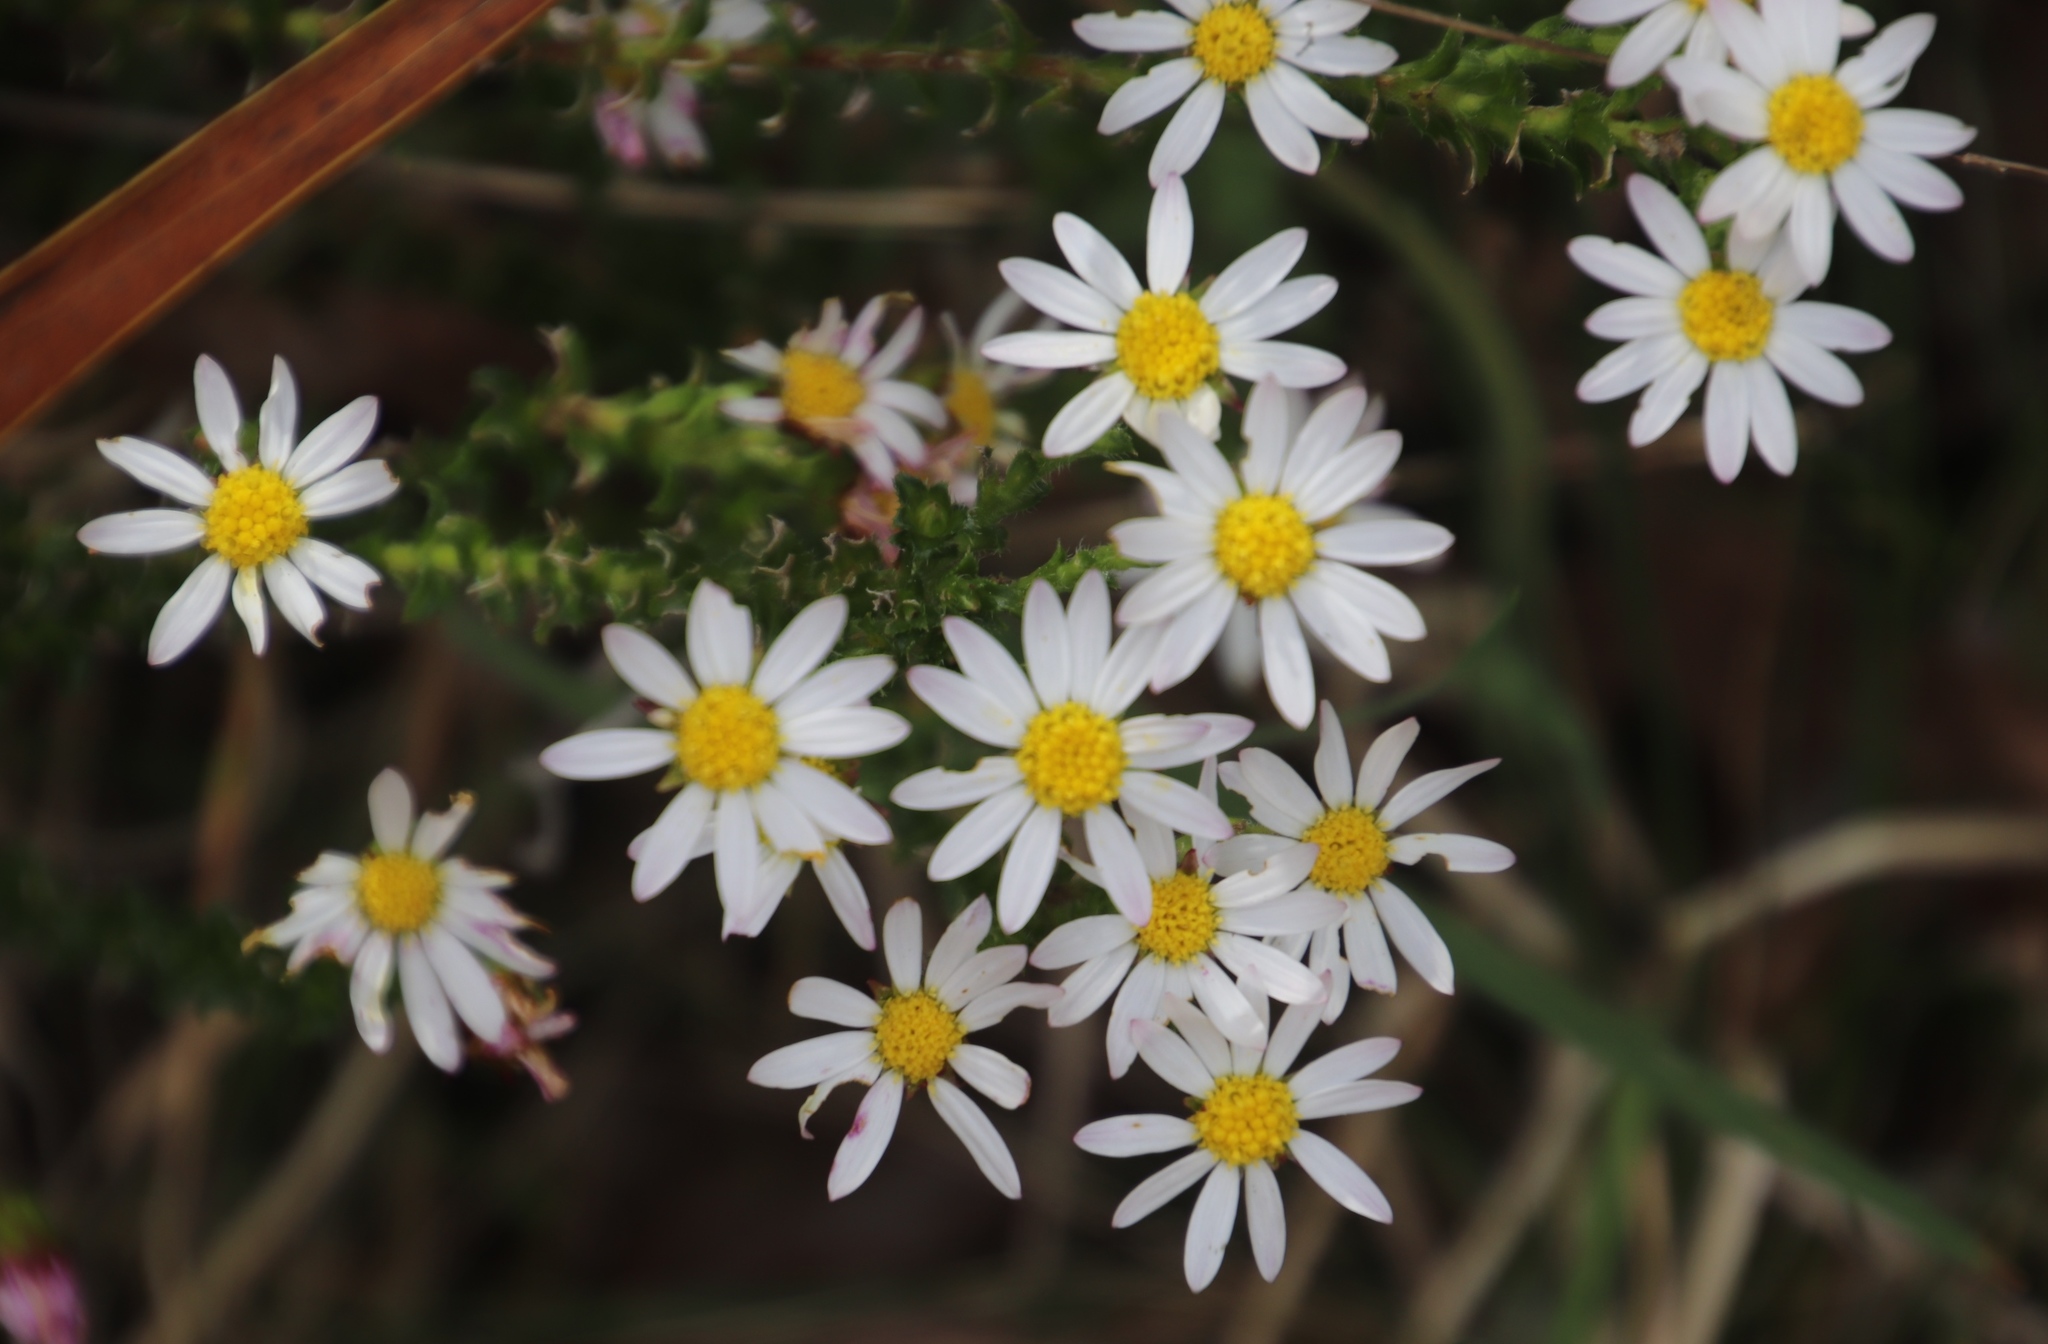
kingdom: Plantae
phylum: Tracheophyta
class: Magnoliopsida
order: Asterales
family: Asteraceae
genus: Polyarrhena
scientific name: Polyarrhena reflexa
